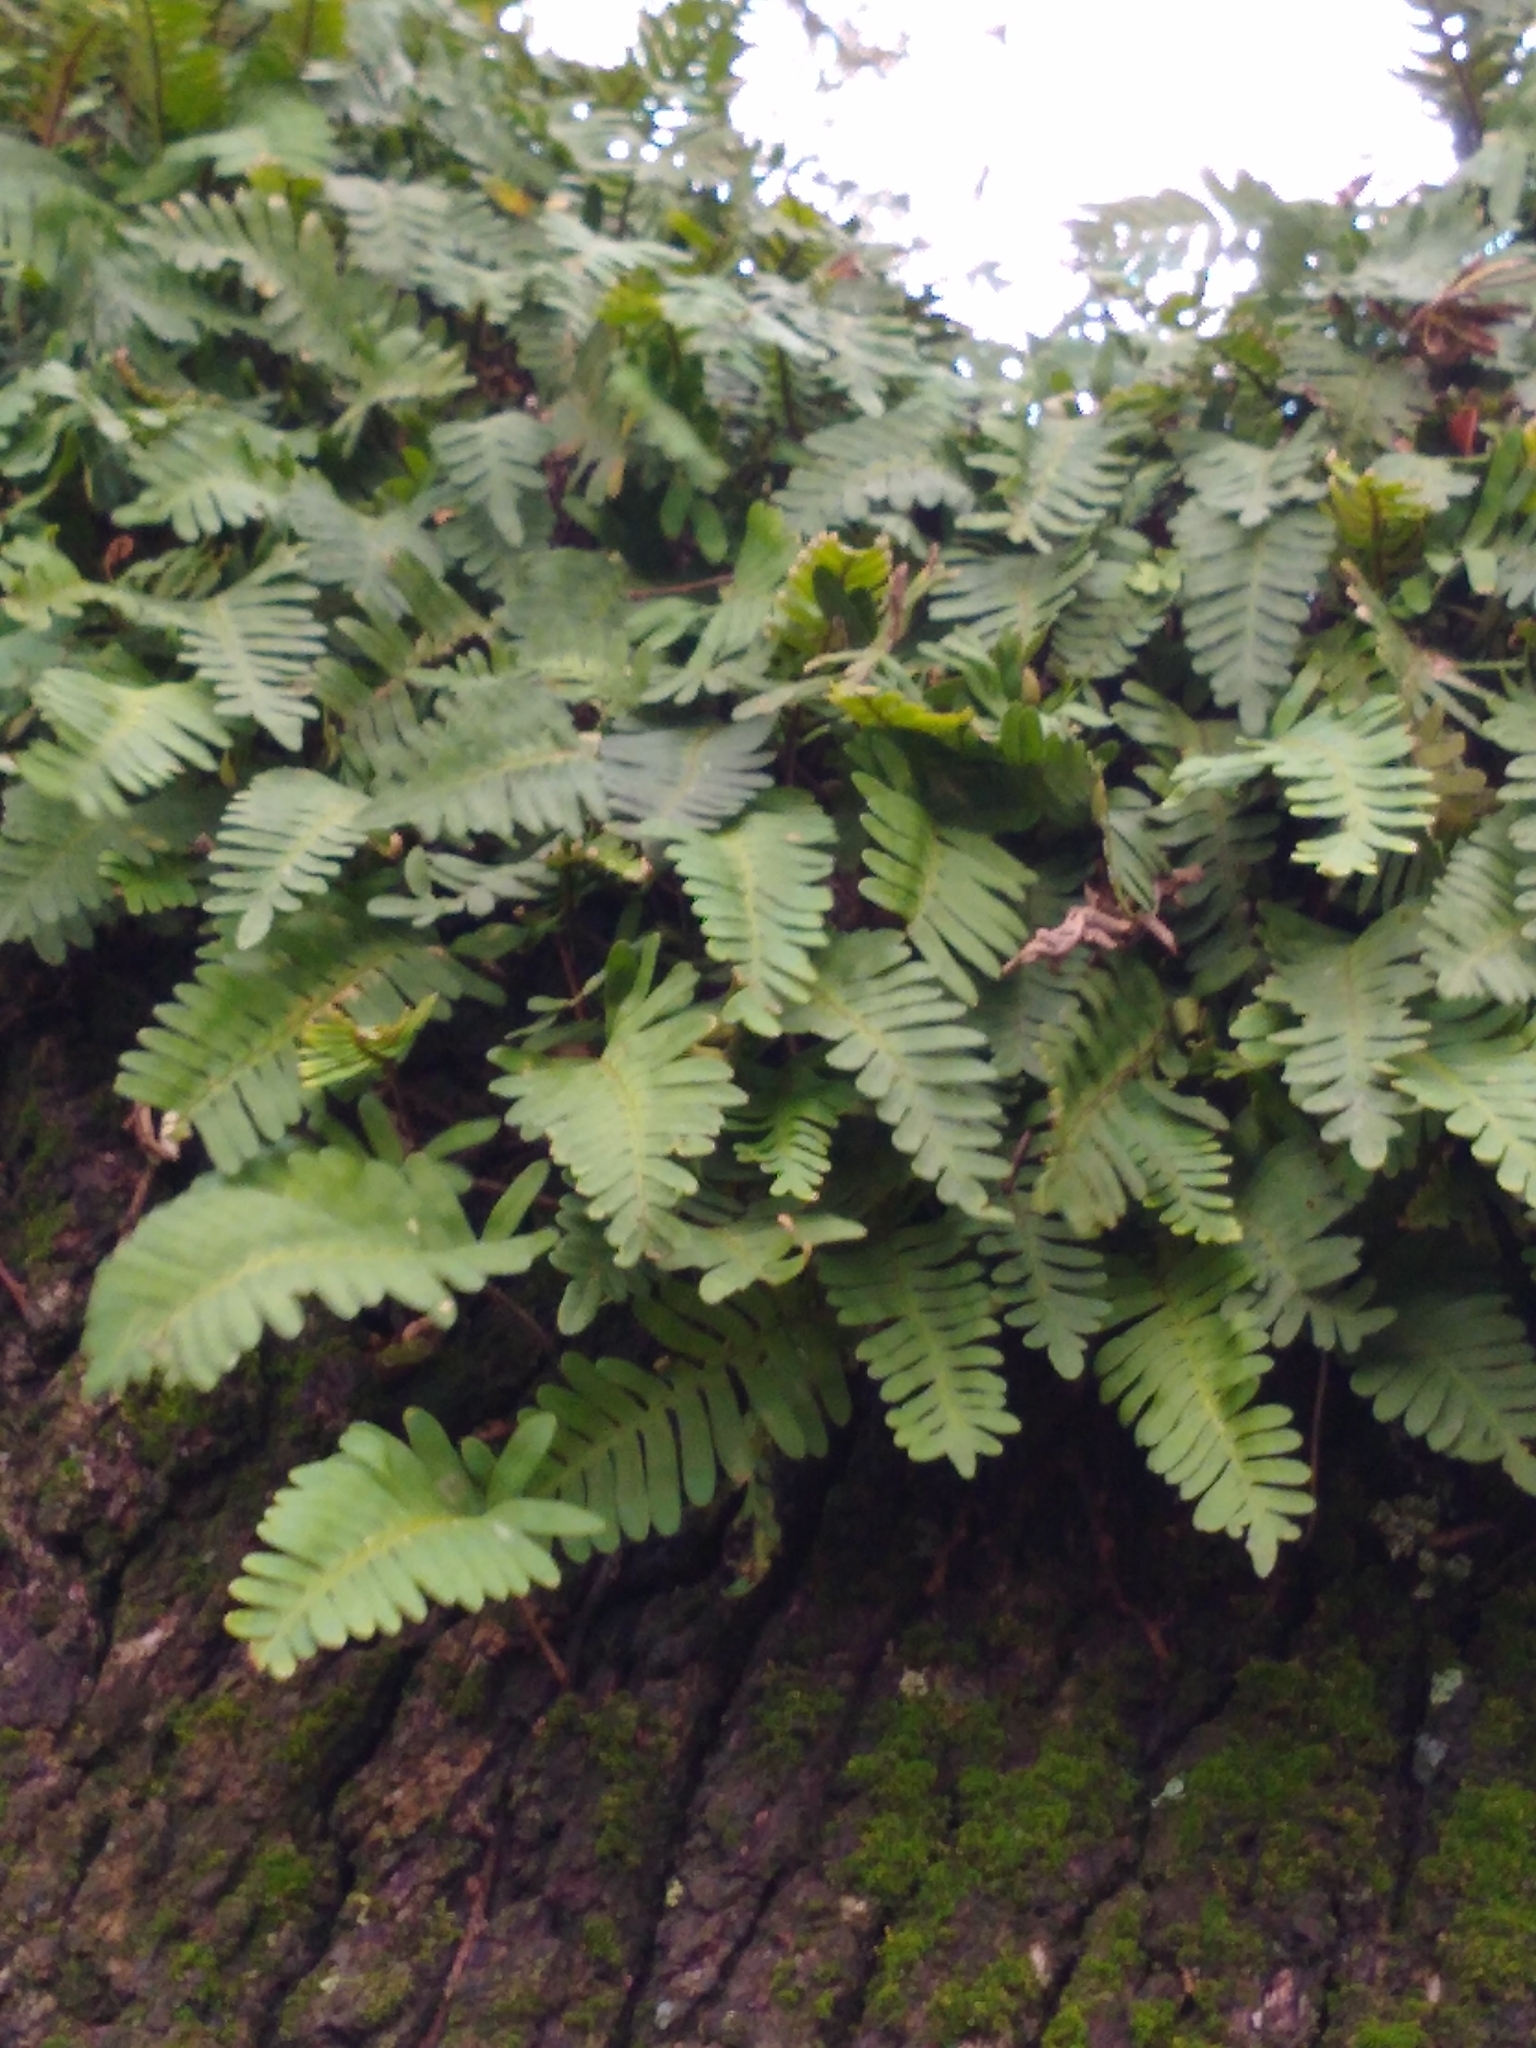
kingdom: Plantae
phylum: Tracheophyta
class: Polypodiopsida
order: Polypodiales
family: Polypodiaceae
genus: Pleopeltis
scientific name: Pleopeltis michauxiana
